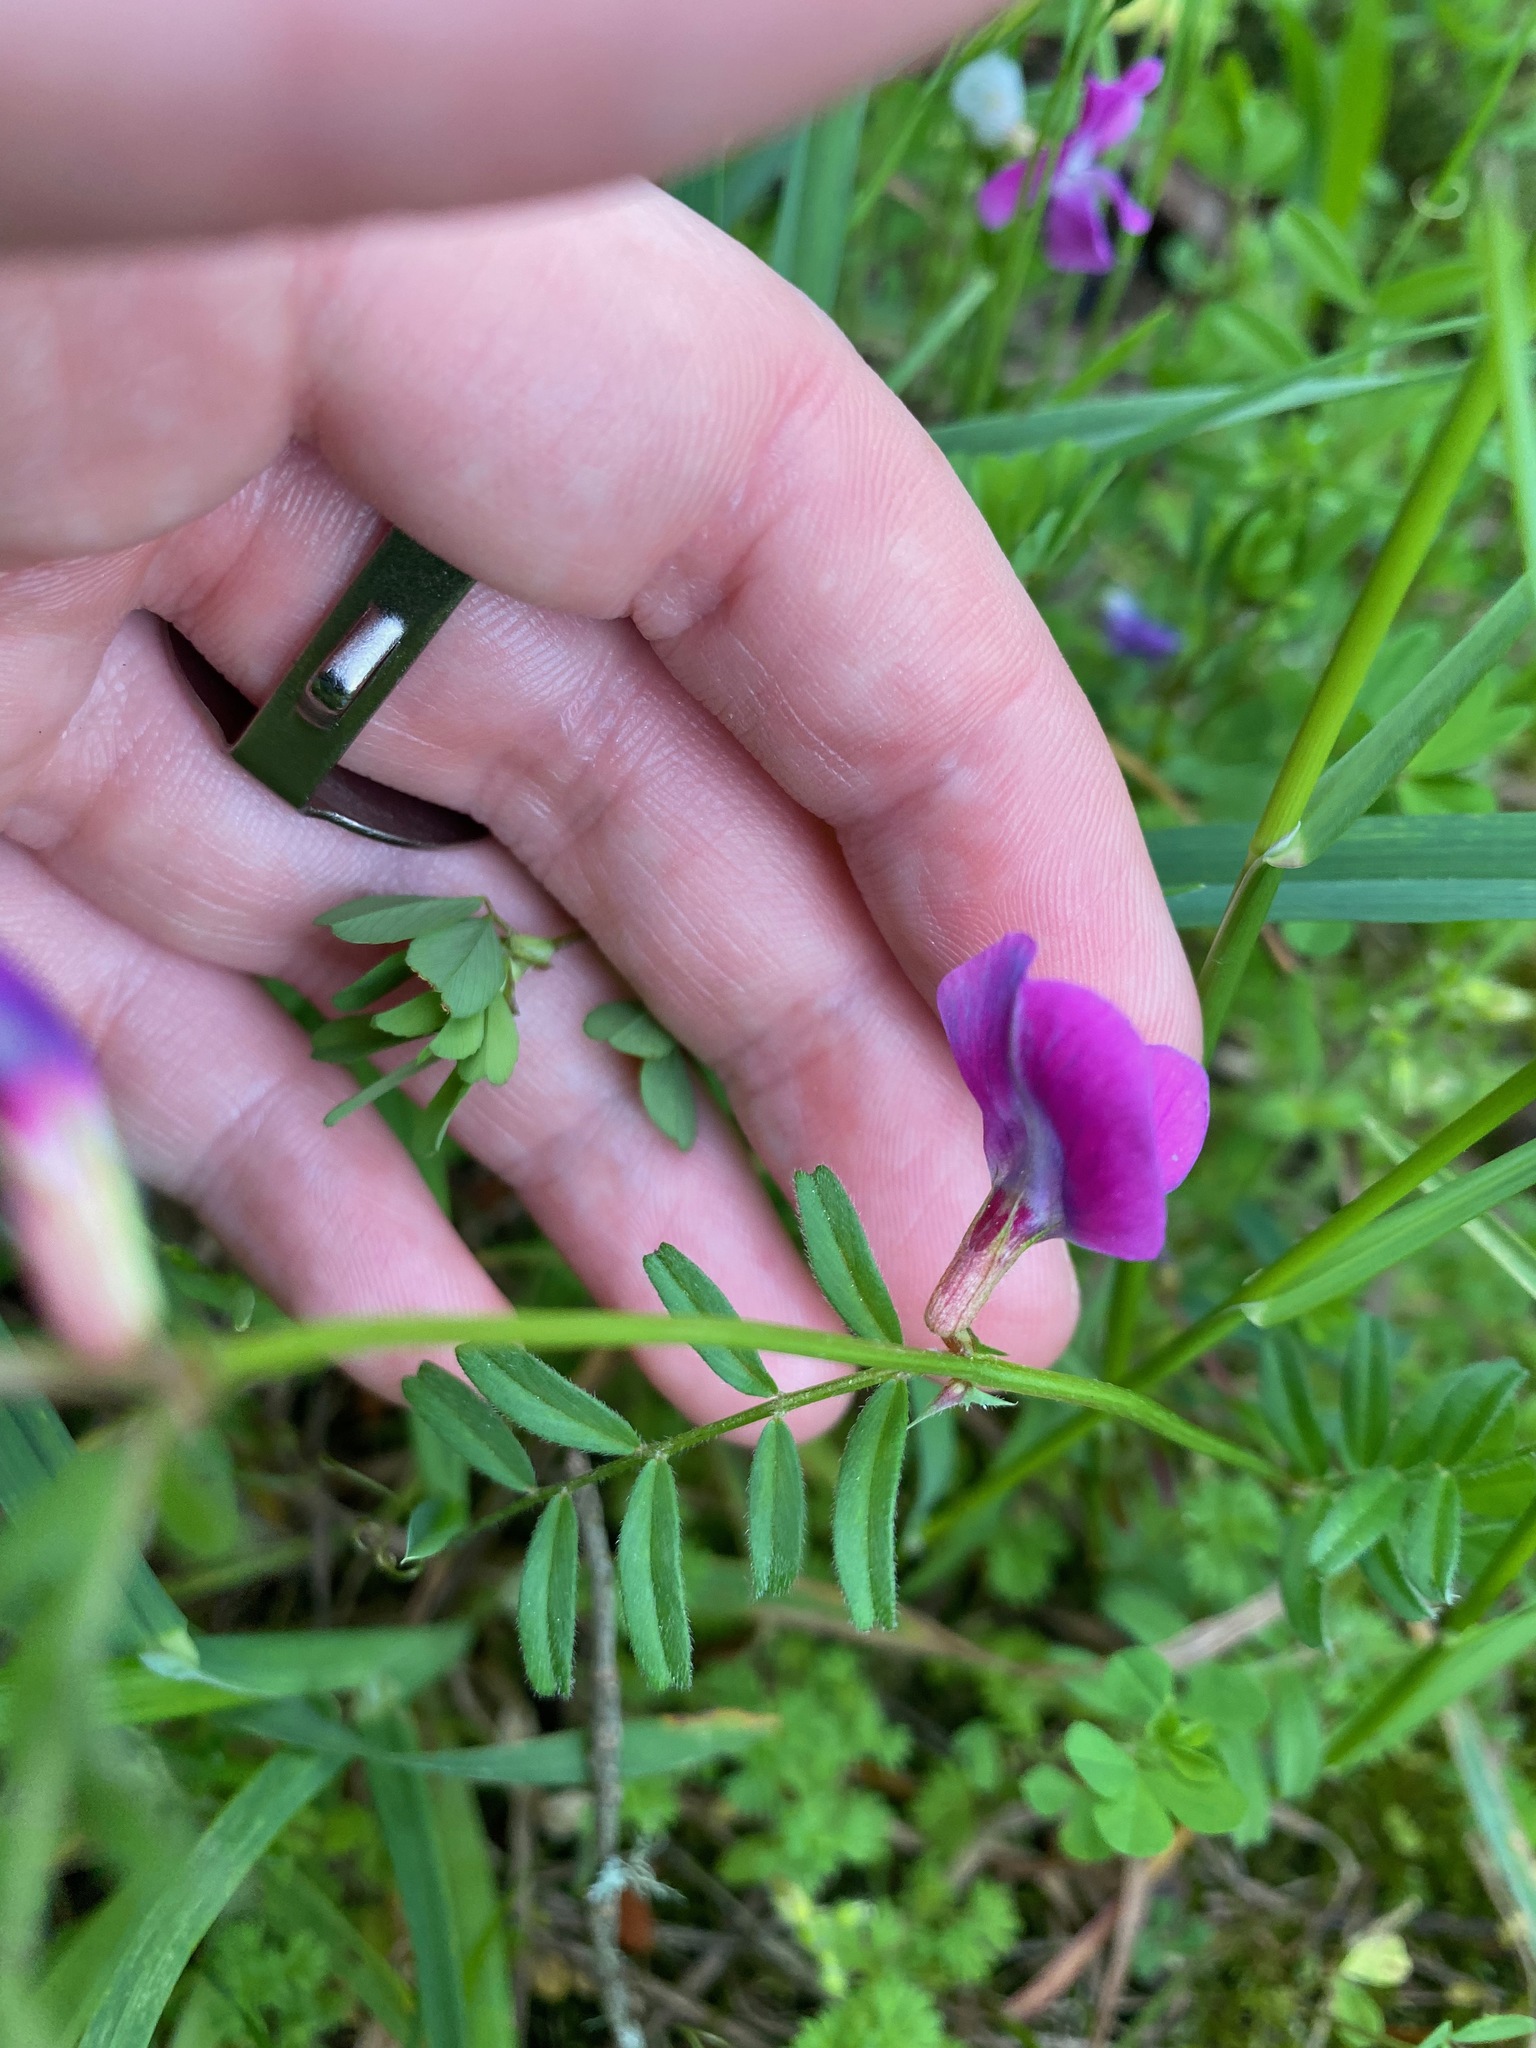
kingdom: Plantae
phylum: Tracheophyta
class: Magnoliopsida
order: Fabales
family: Fabaceae
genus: Vicia
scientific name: Vicia sativa
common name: Garden vetch
